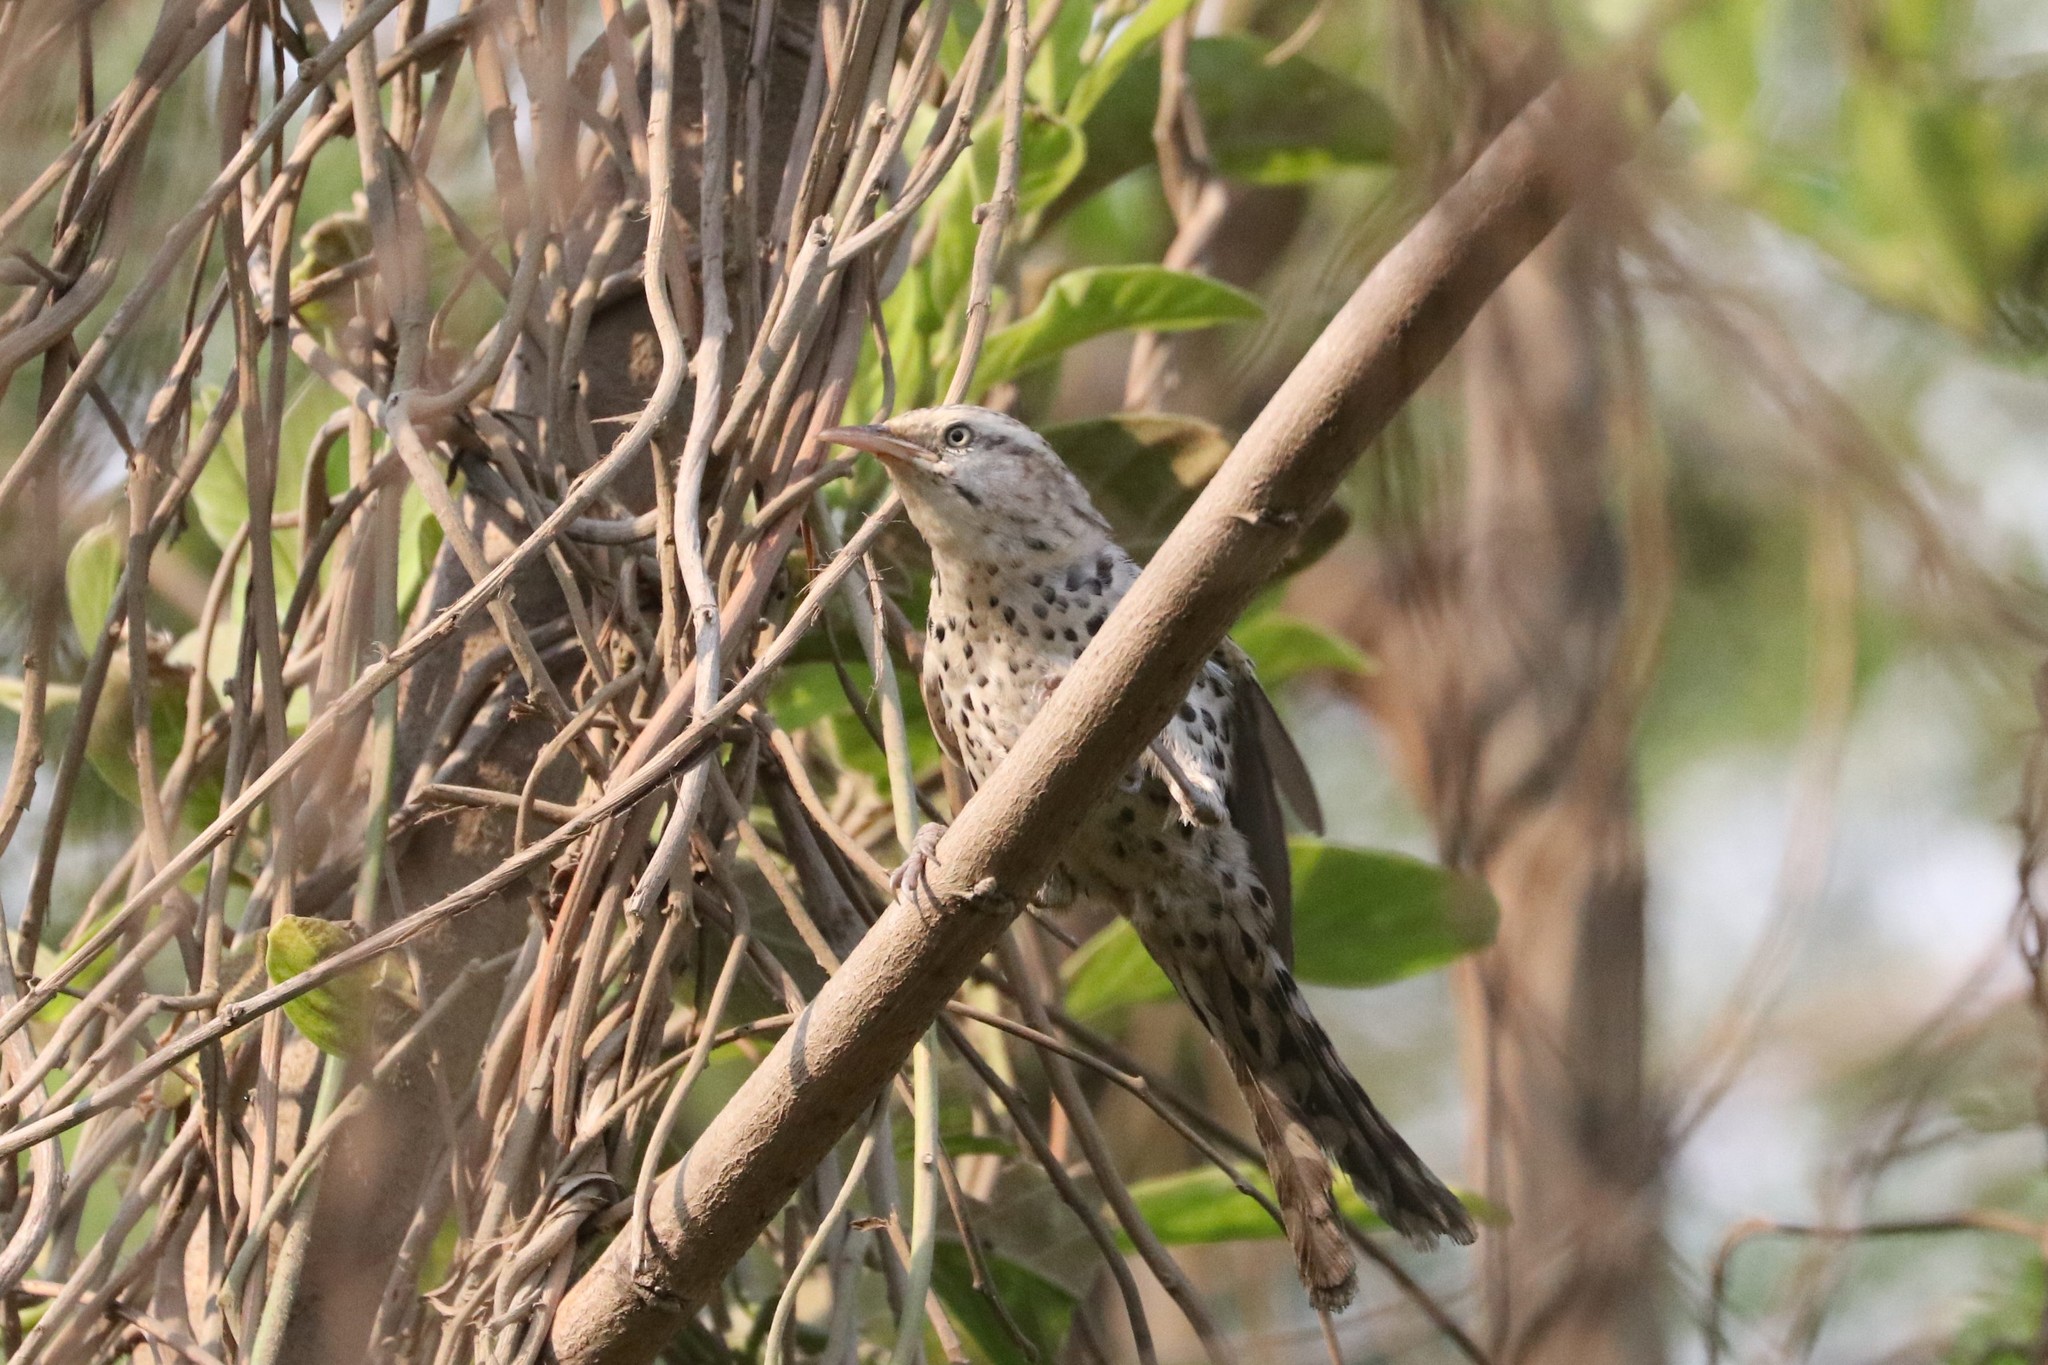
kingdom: Animalia
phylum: Chordata
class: Aves
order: Passeriformes
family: Troglodytidae
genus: Campylorhynchus
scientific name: Campylorhynchus nuchalis
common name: Stripe-backed wren
